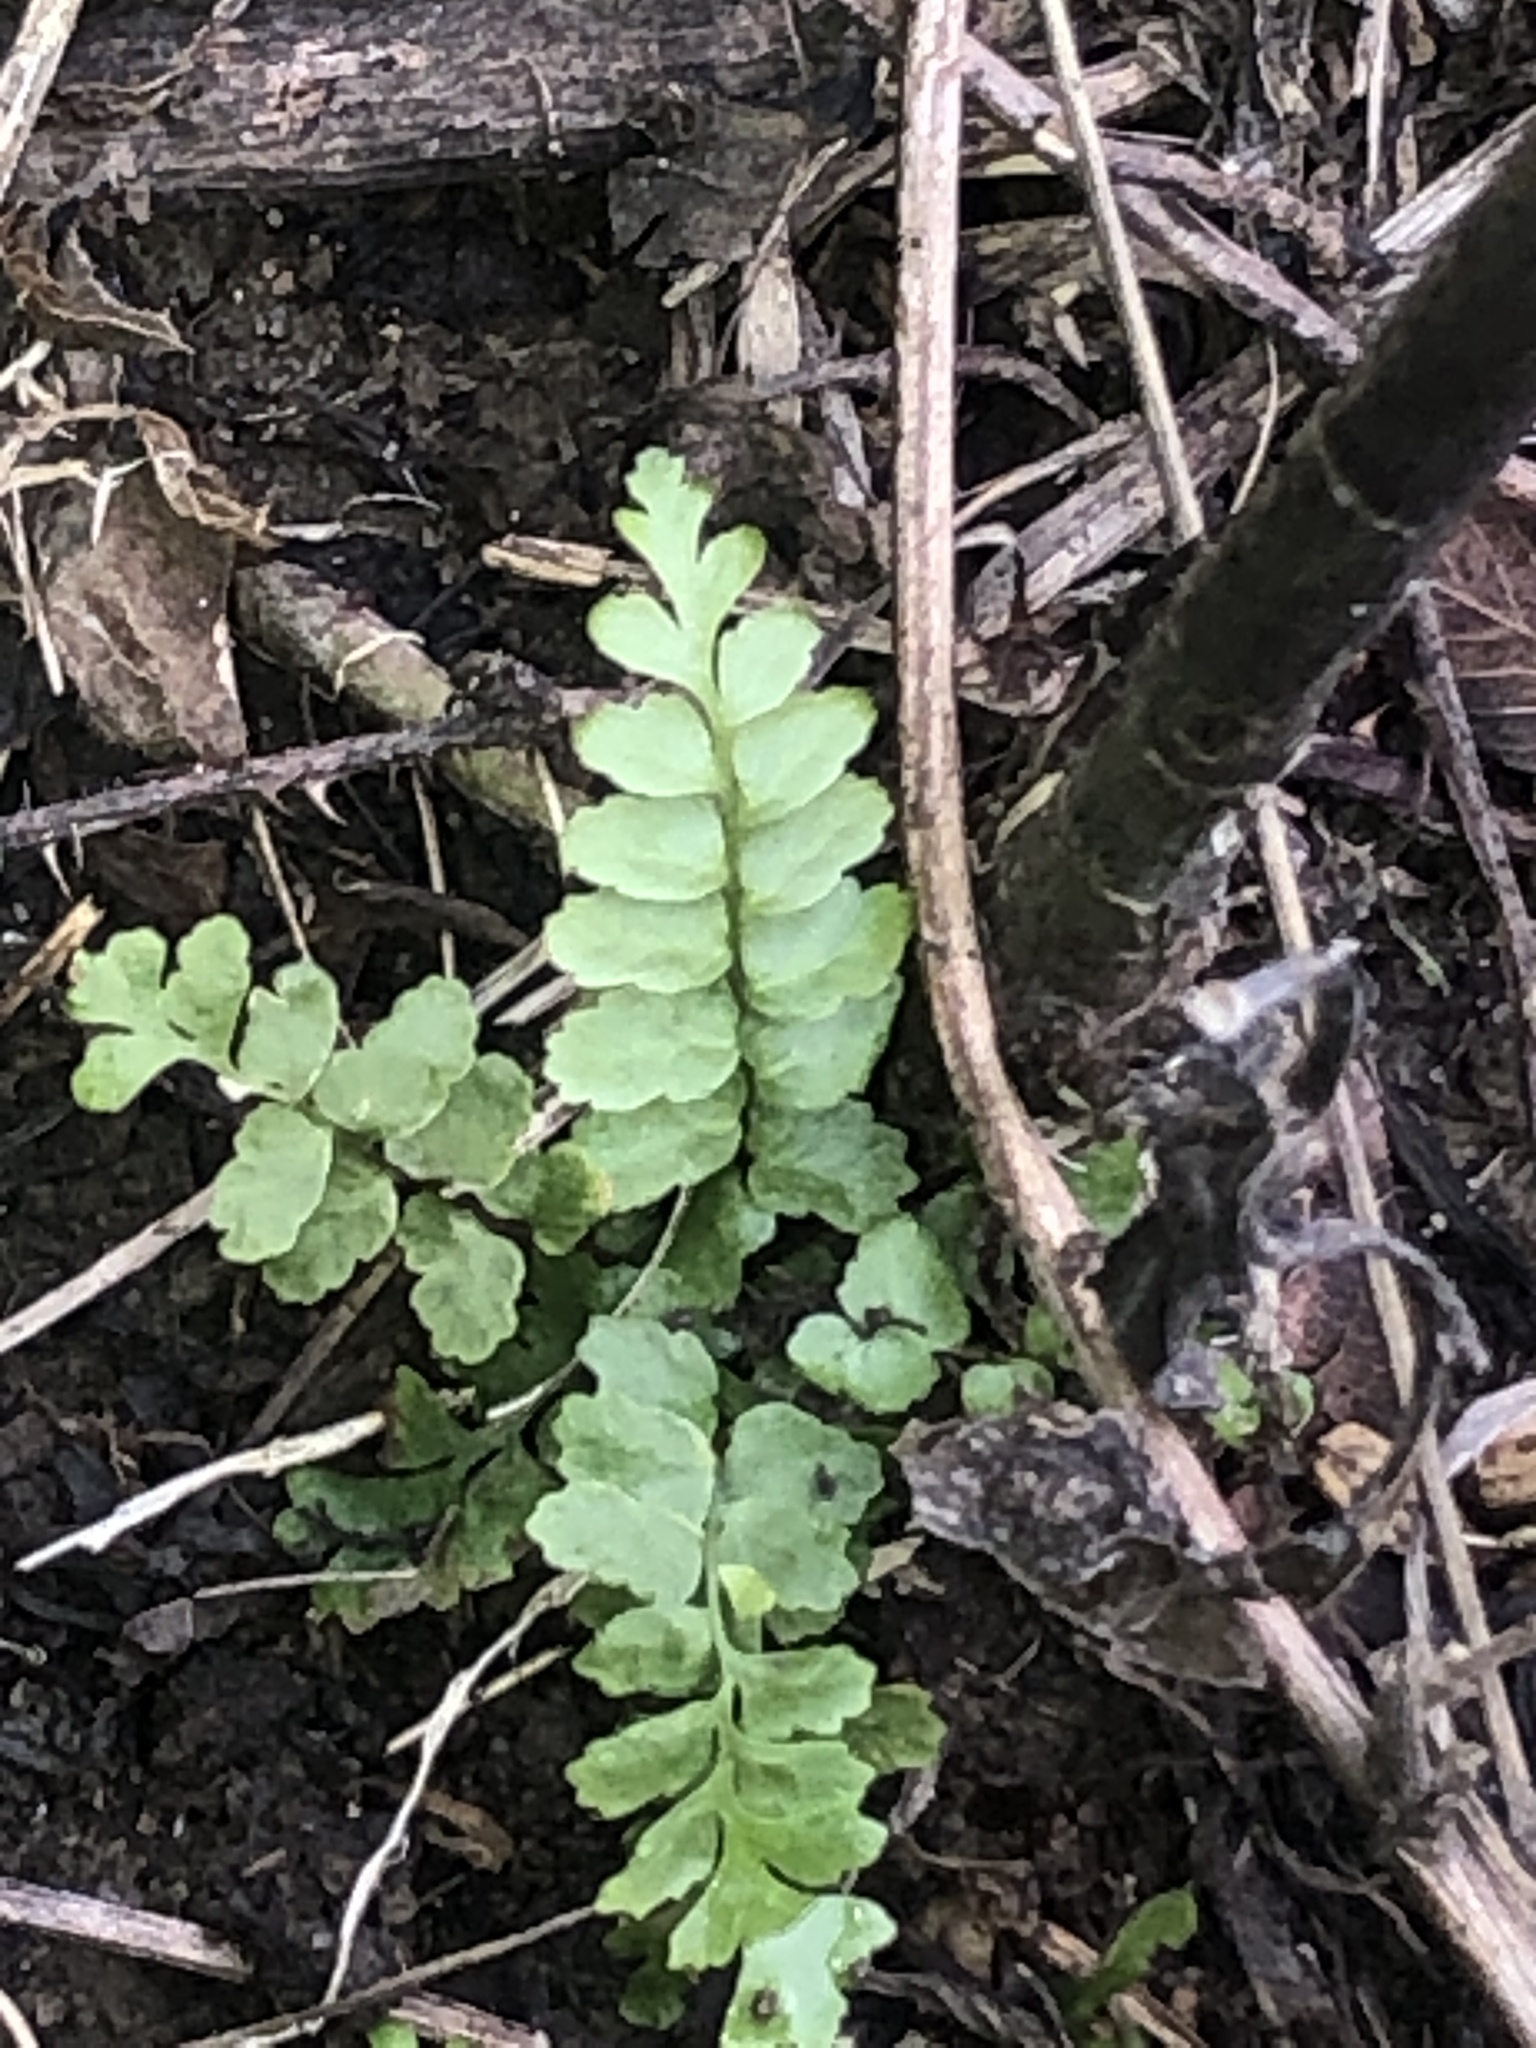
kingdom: Plantae
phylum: Tracheophyta
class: Polypodiopsida
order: Polypodiales
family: Aspleniaceae
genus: Asplenium
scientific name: Asplenium platyneuron
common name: Ebony spleenwort
